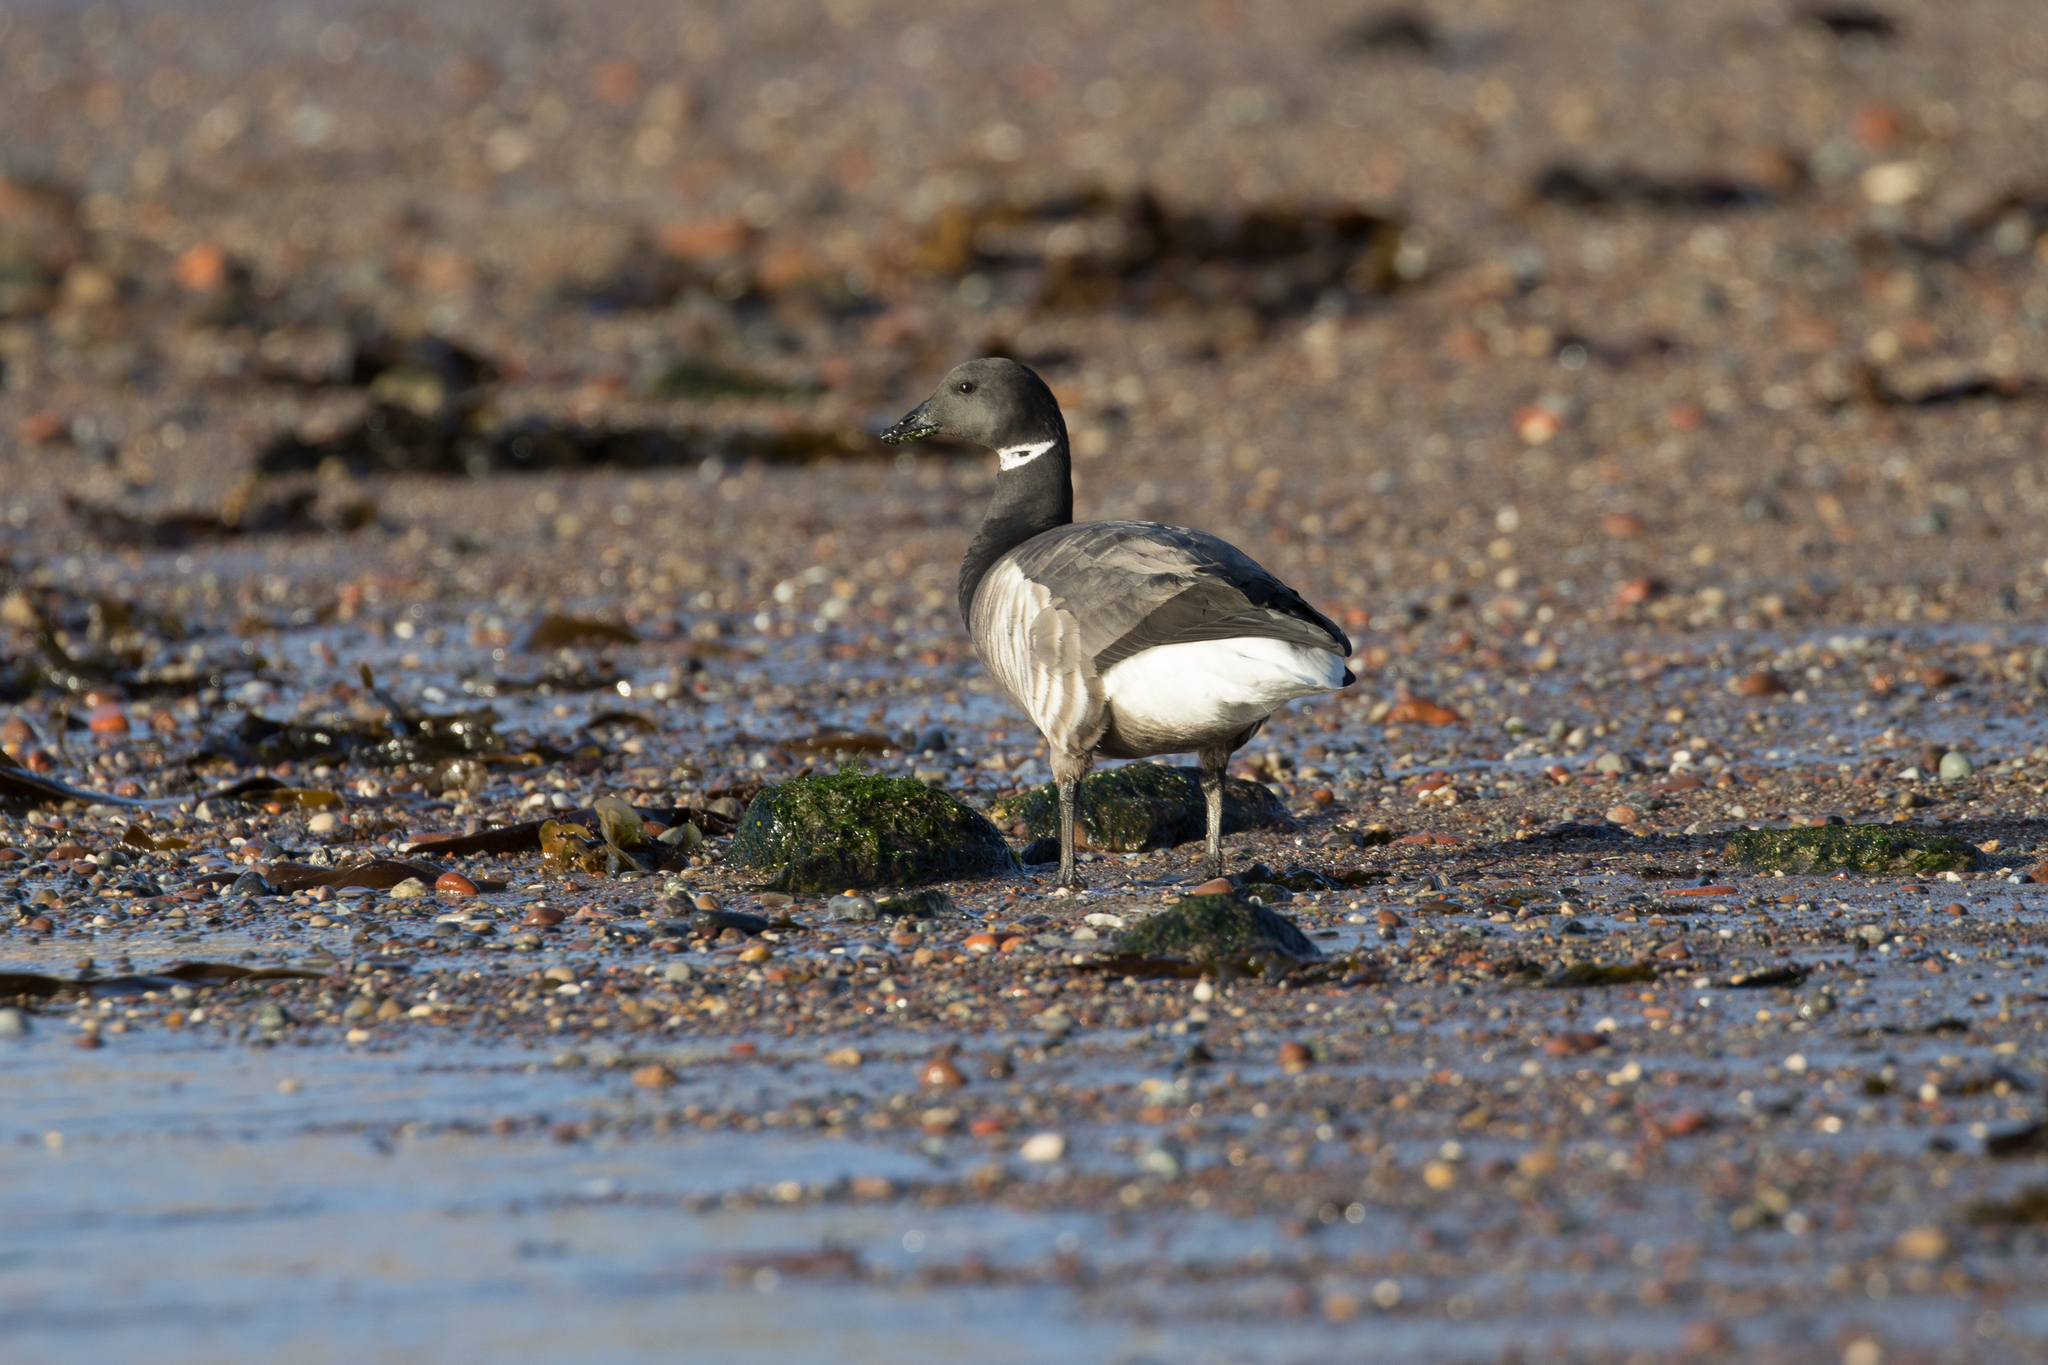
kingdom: Animalia
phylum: Chordata
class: Aves
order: Anseriformes
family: Anatidae
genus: Branta
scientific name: Branta bernicla
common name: Brant goose
